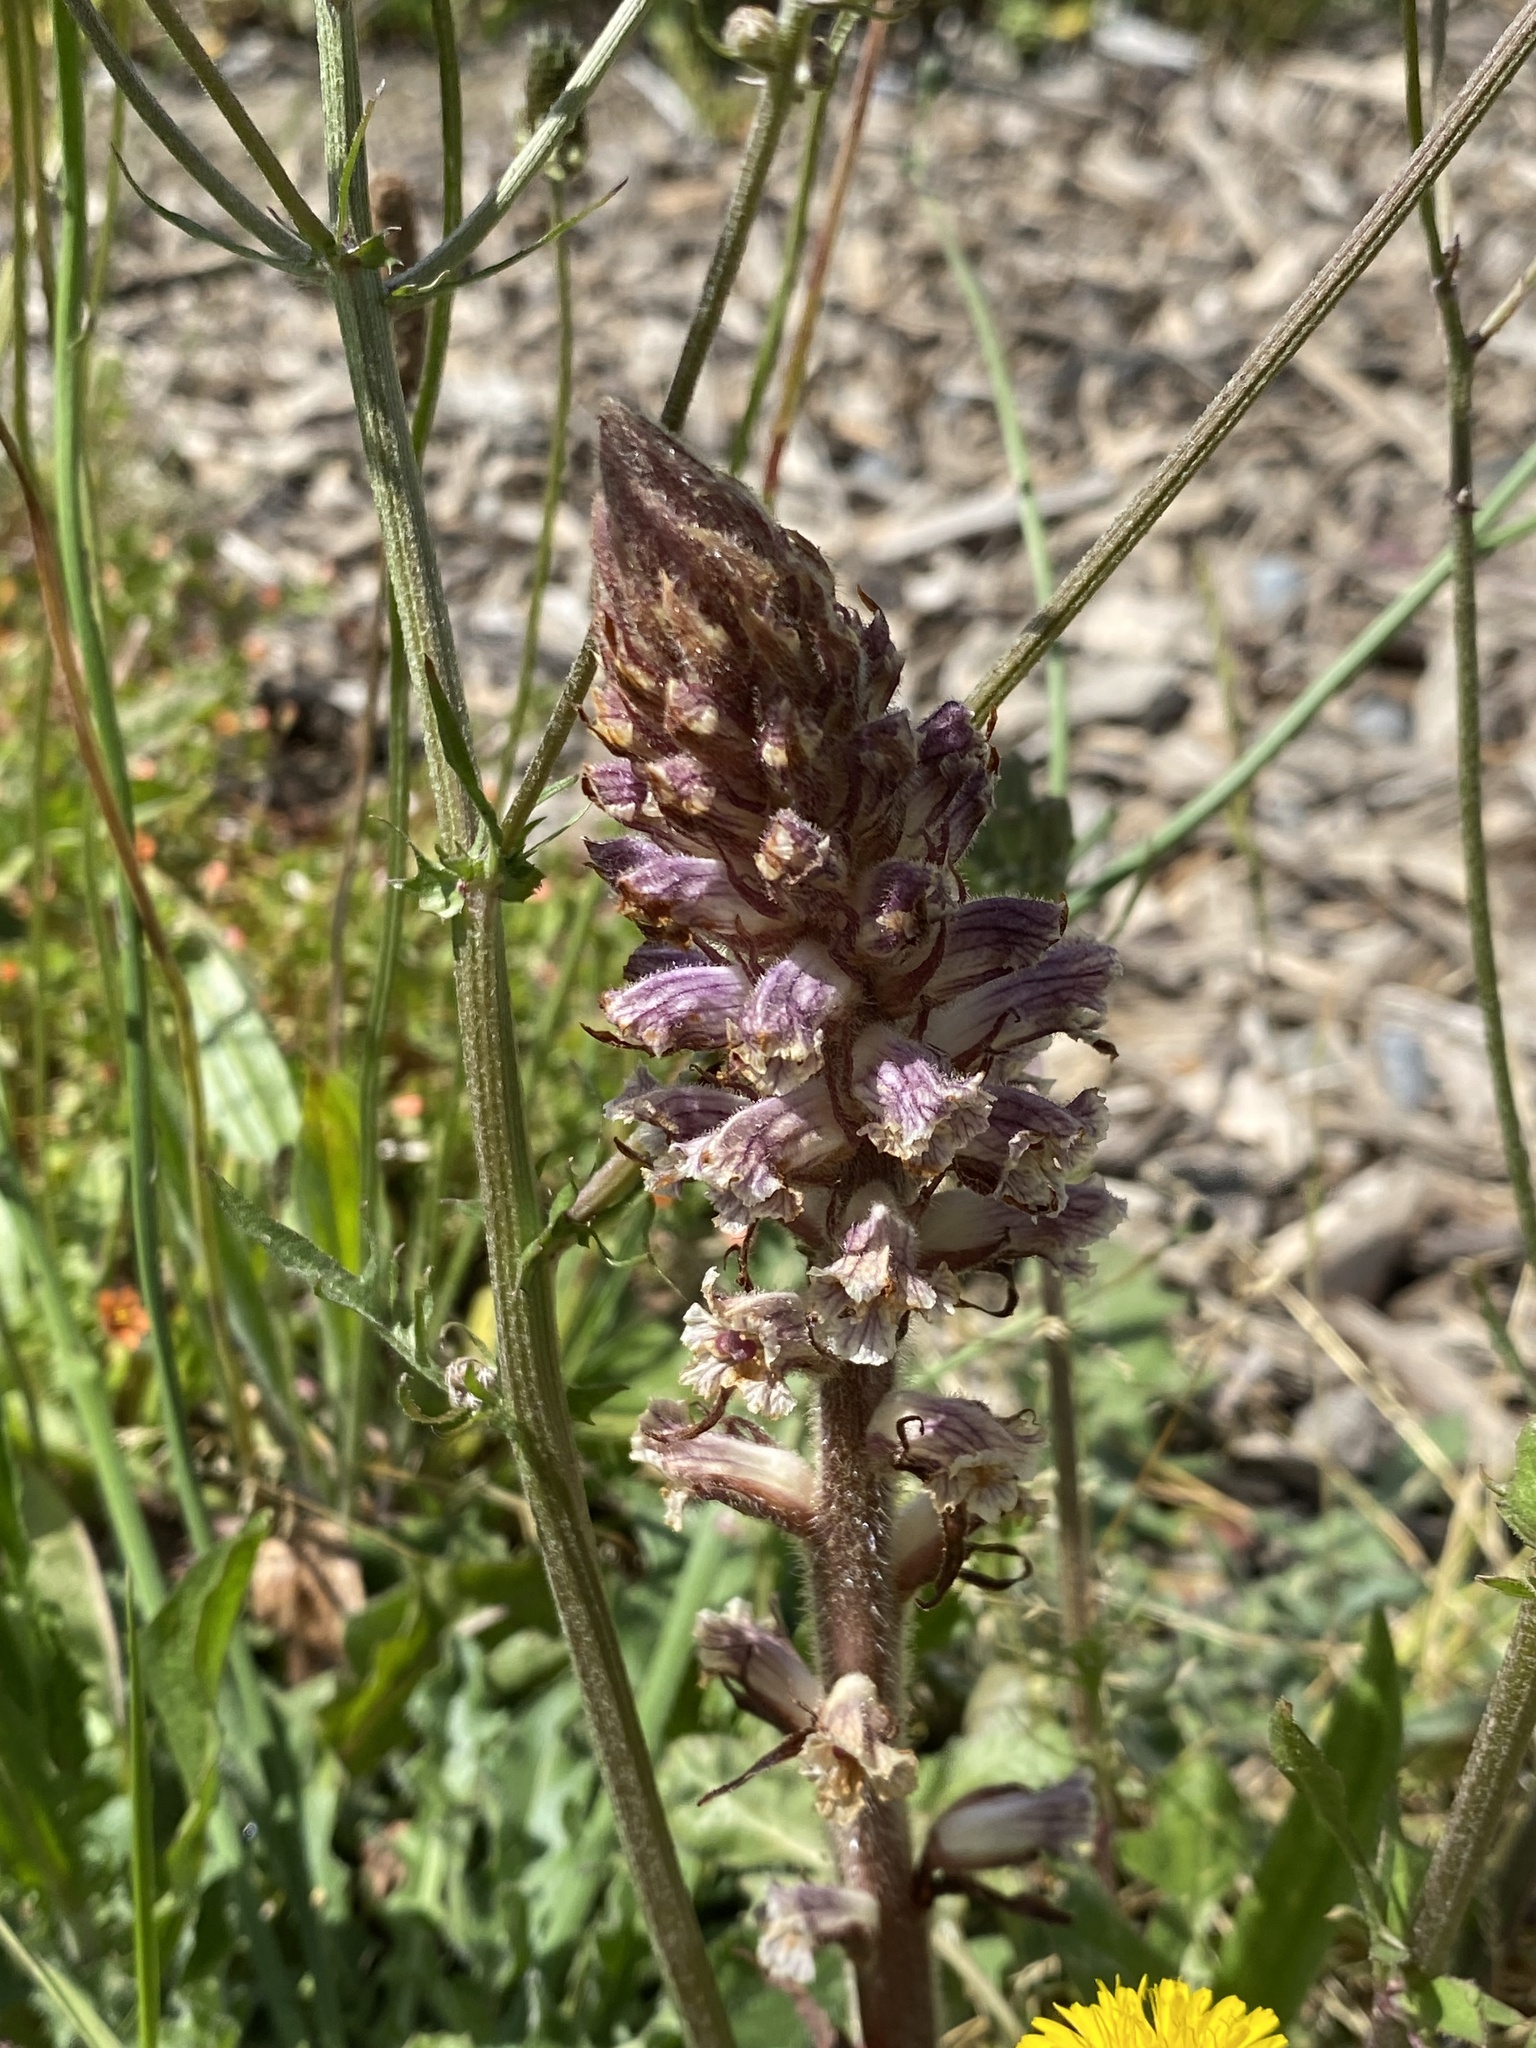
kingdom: Plantae
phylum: Tracheophyta
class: Magnoliopsida
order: Lamiales
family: Orobanchaceae
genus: Orobanche
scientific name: Orobanche minor
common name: Common broomrape
